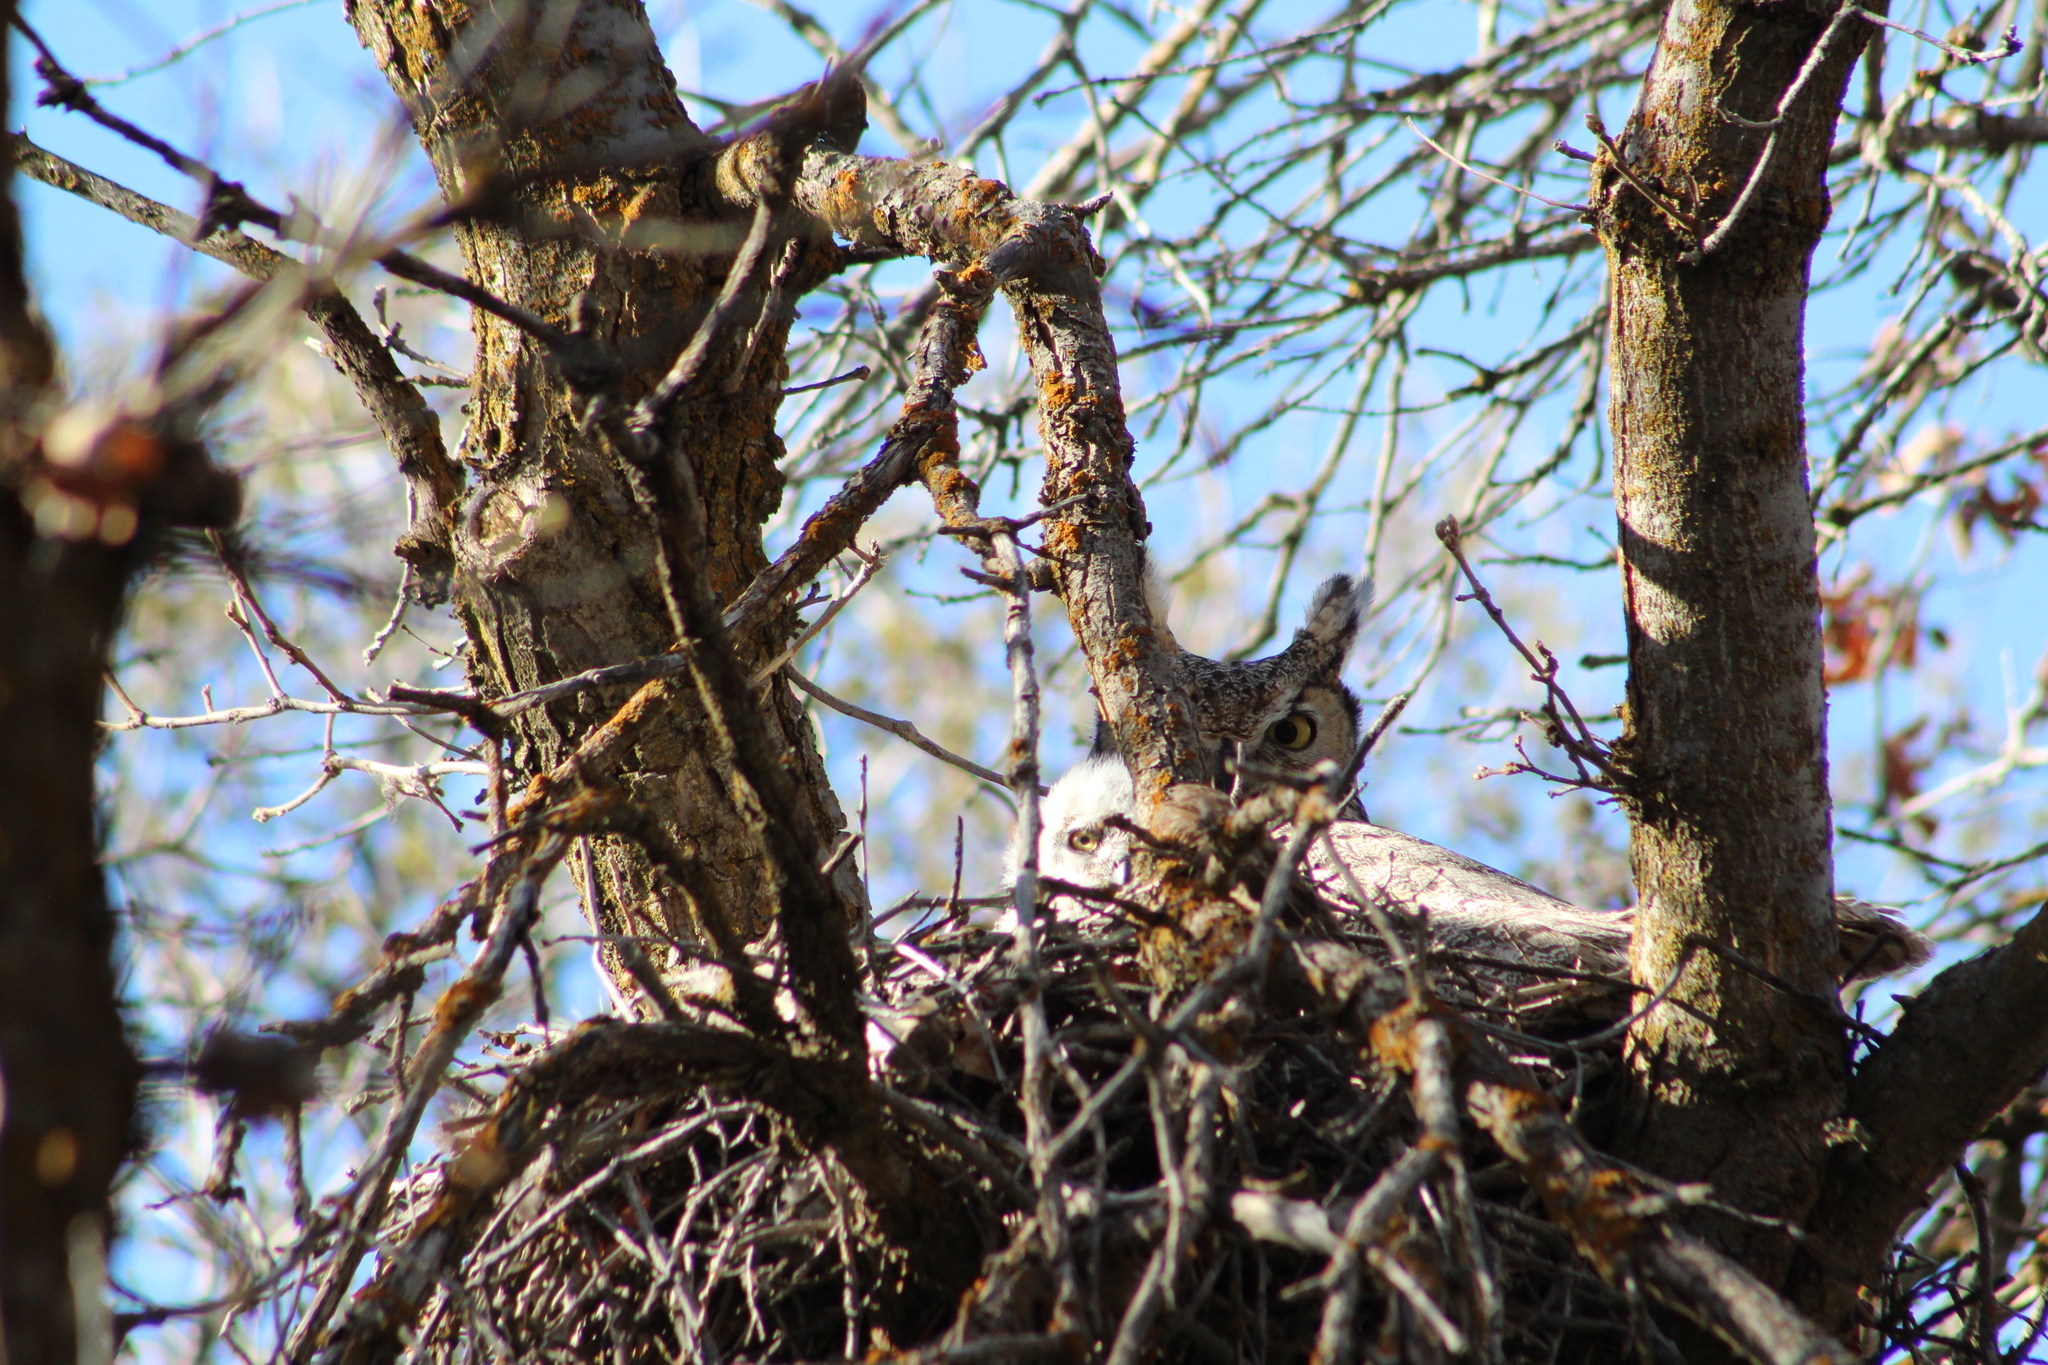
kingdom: Animalia
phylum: Chordata
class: Aves
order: Strigiformes
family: Strigidae
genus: Bubo
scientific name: Bubo virginianus
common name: Great horned owl
